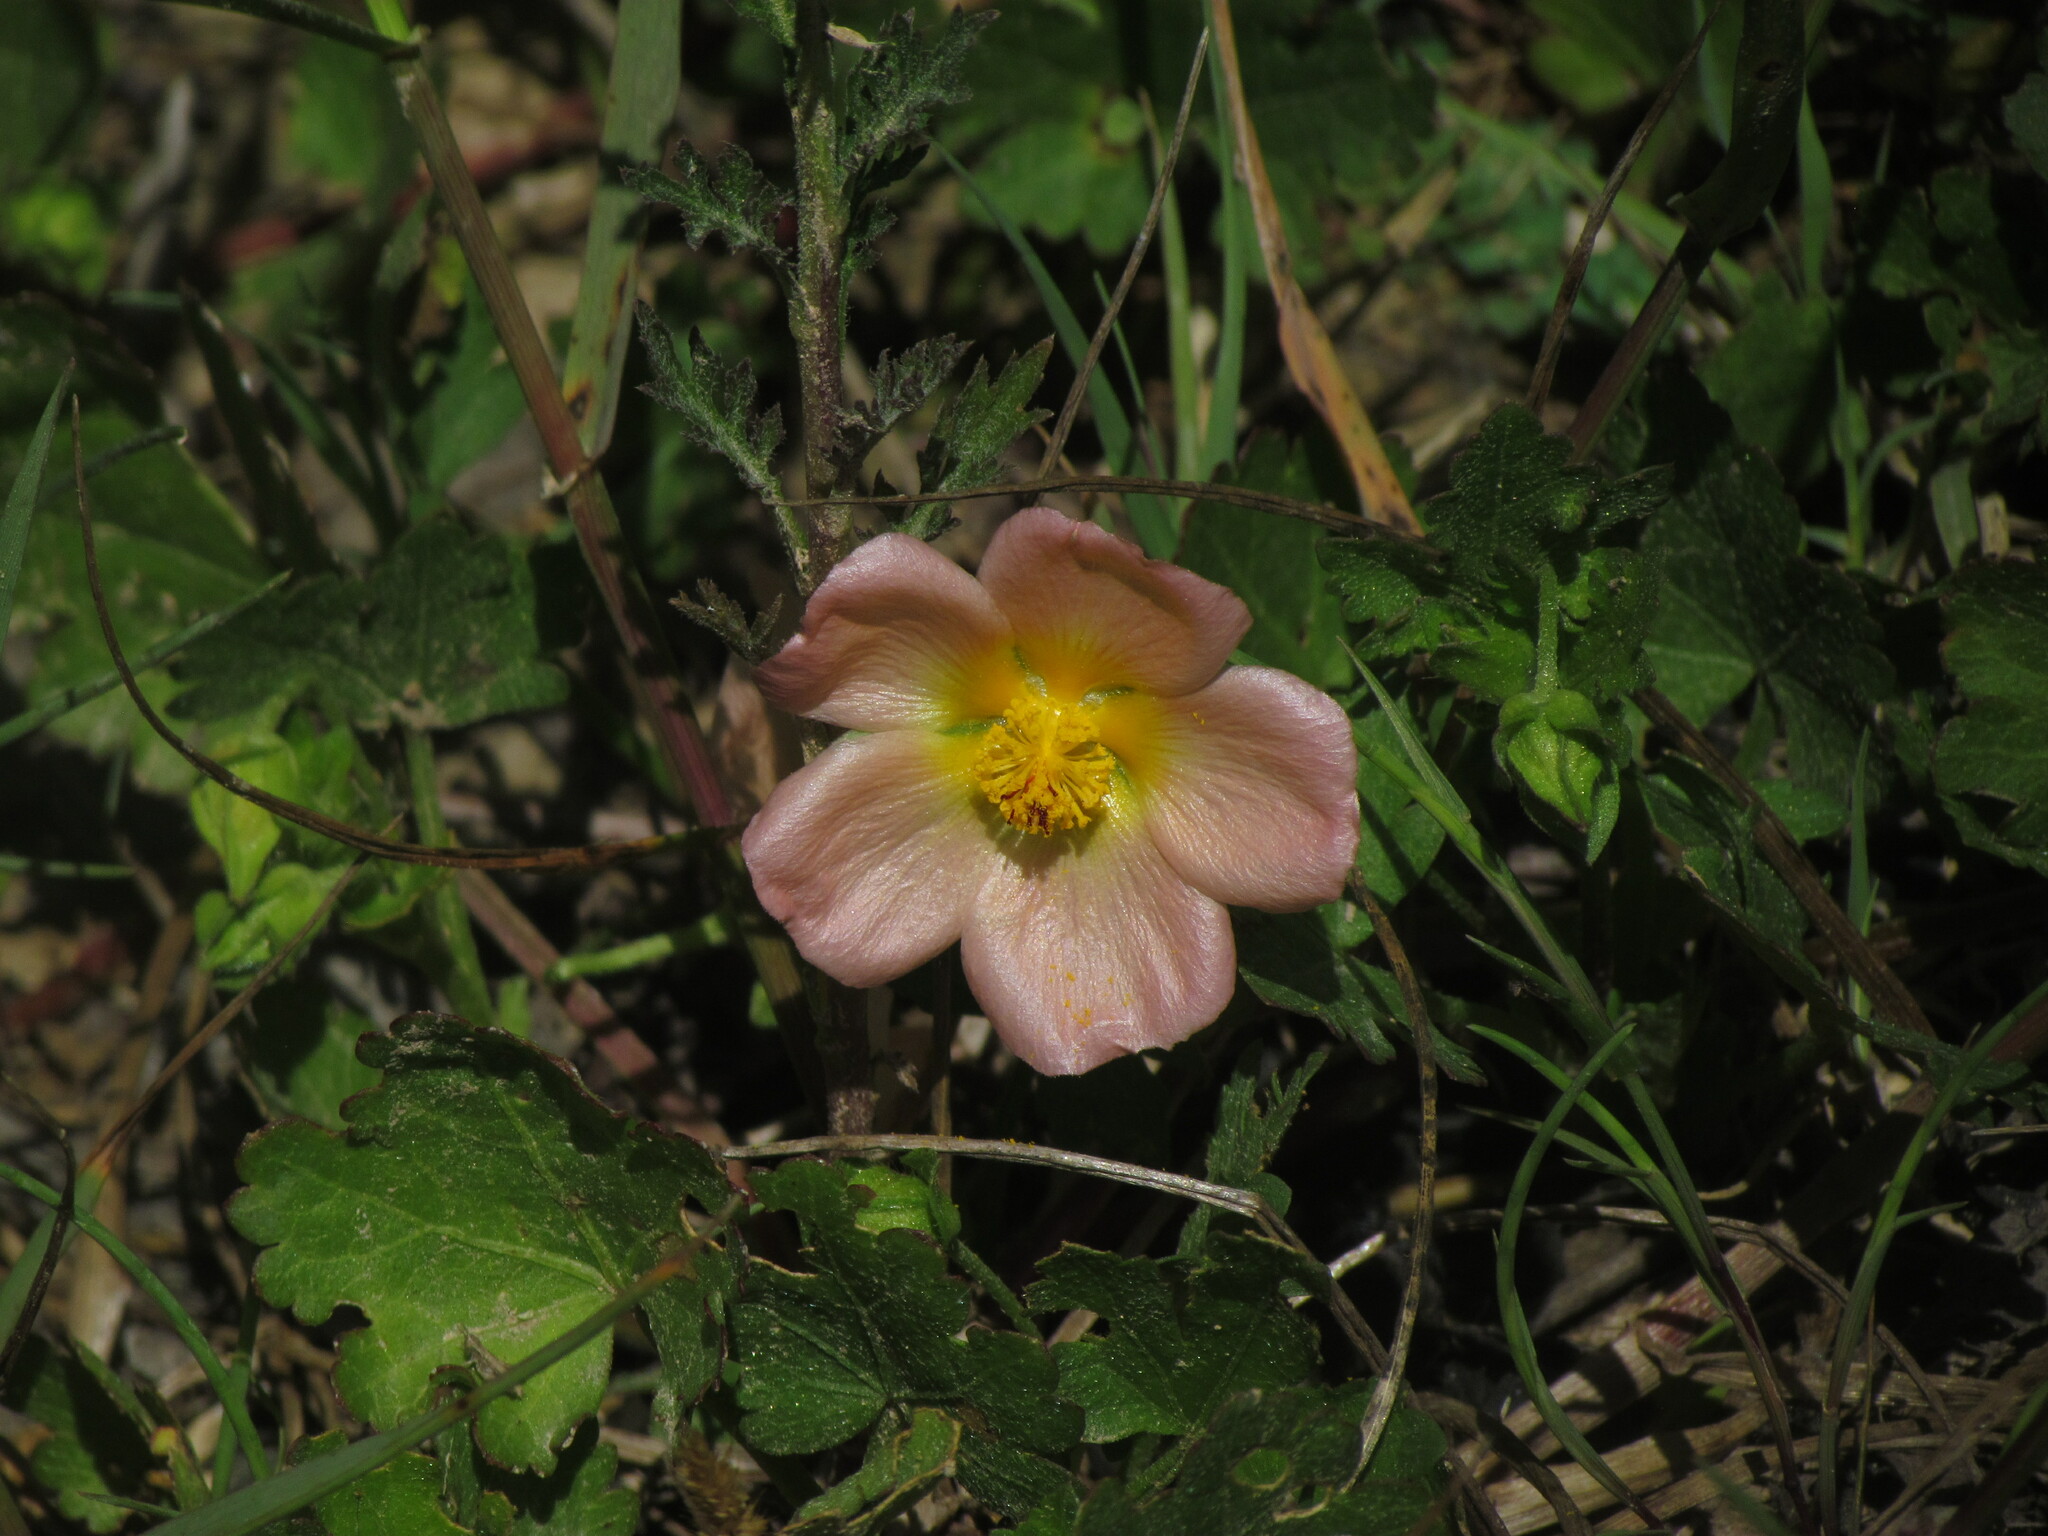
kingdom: Plantae
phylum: Tracheophyta
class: Magnoliopsida
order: Malvales
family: Malvaceae
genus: Modiolastrum
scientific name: Modiolastrum malvifolium
